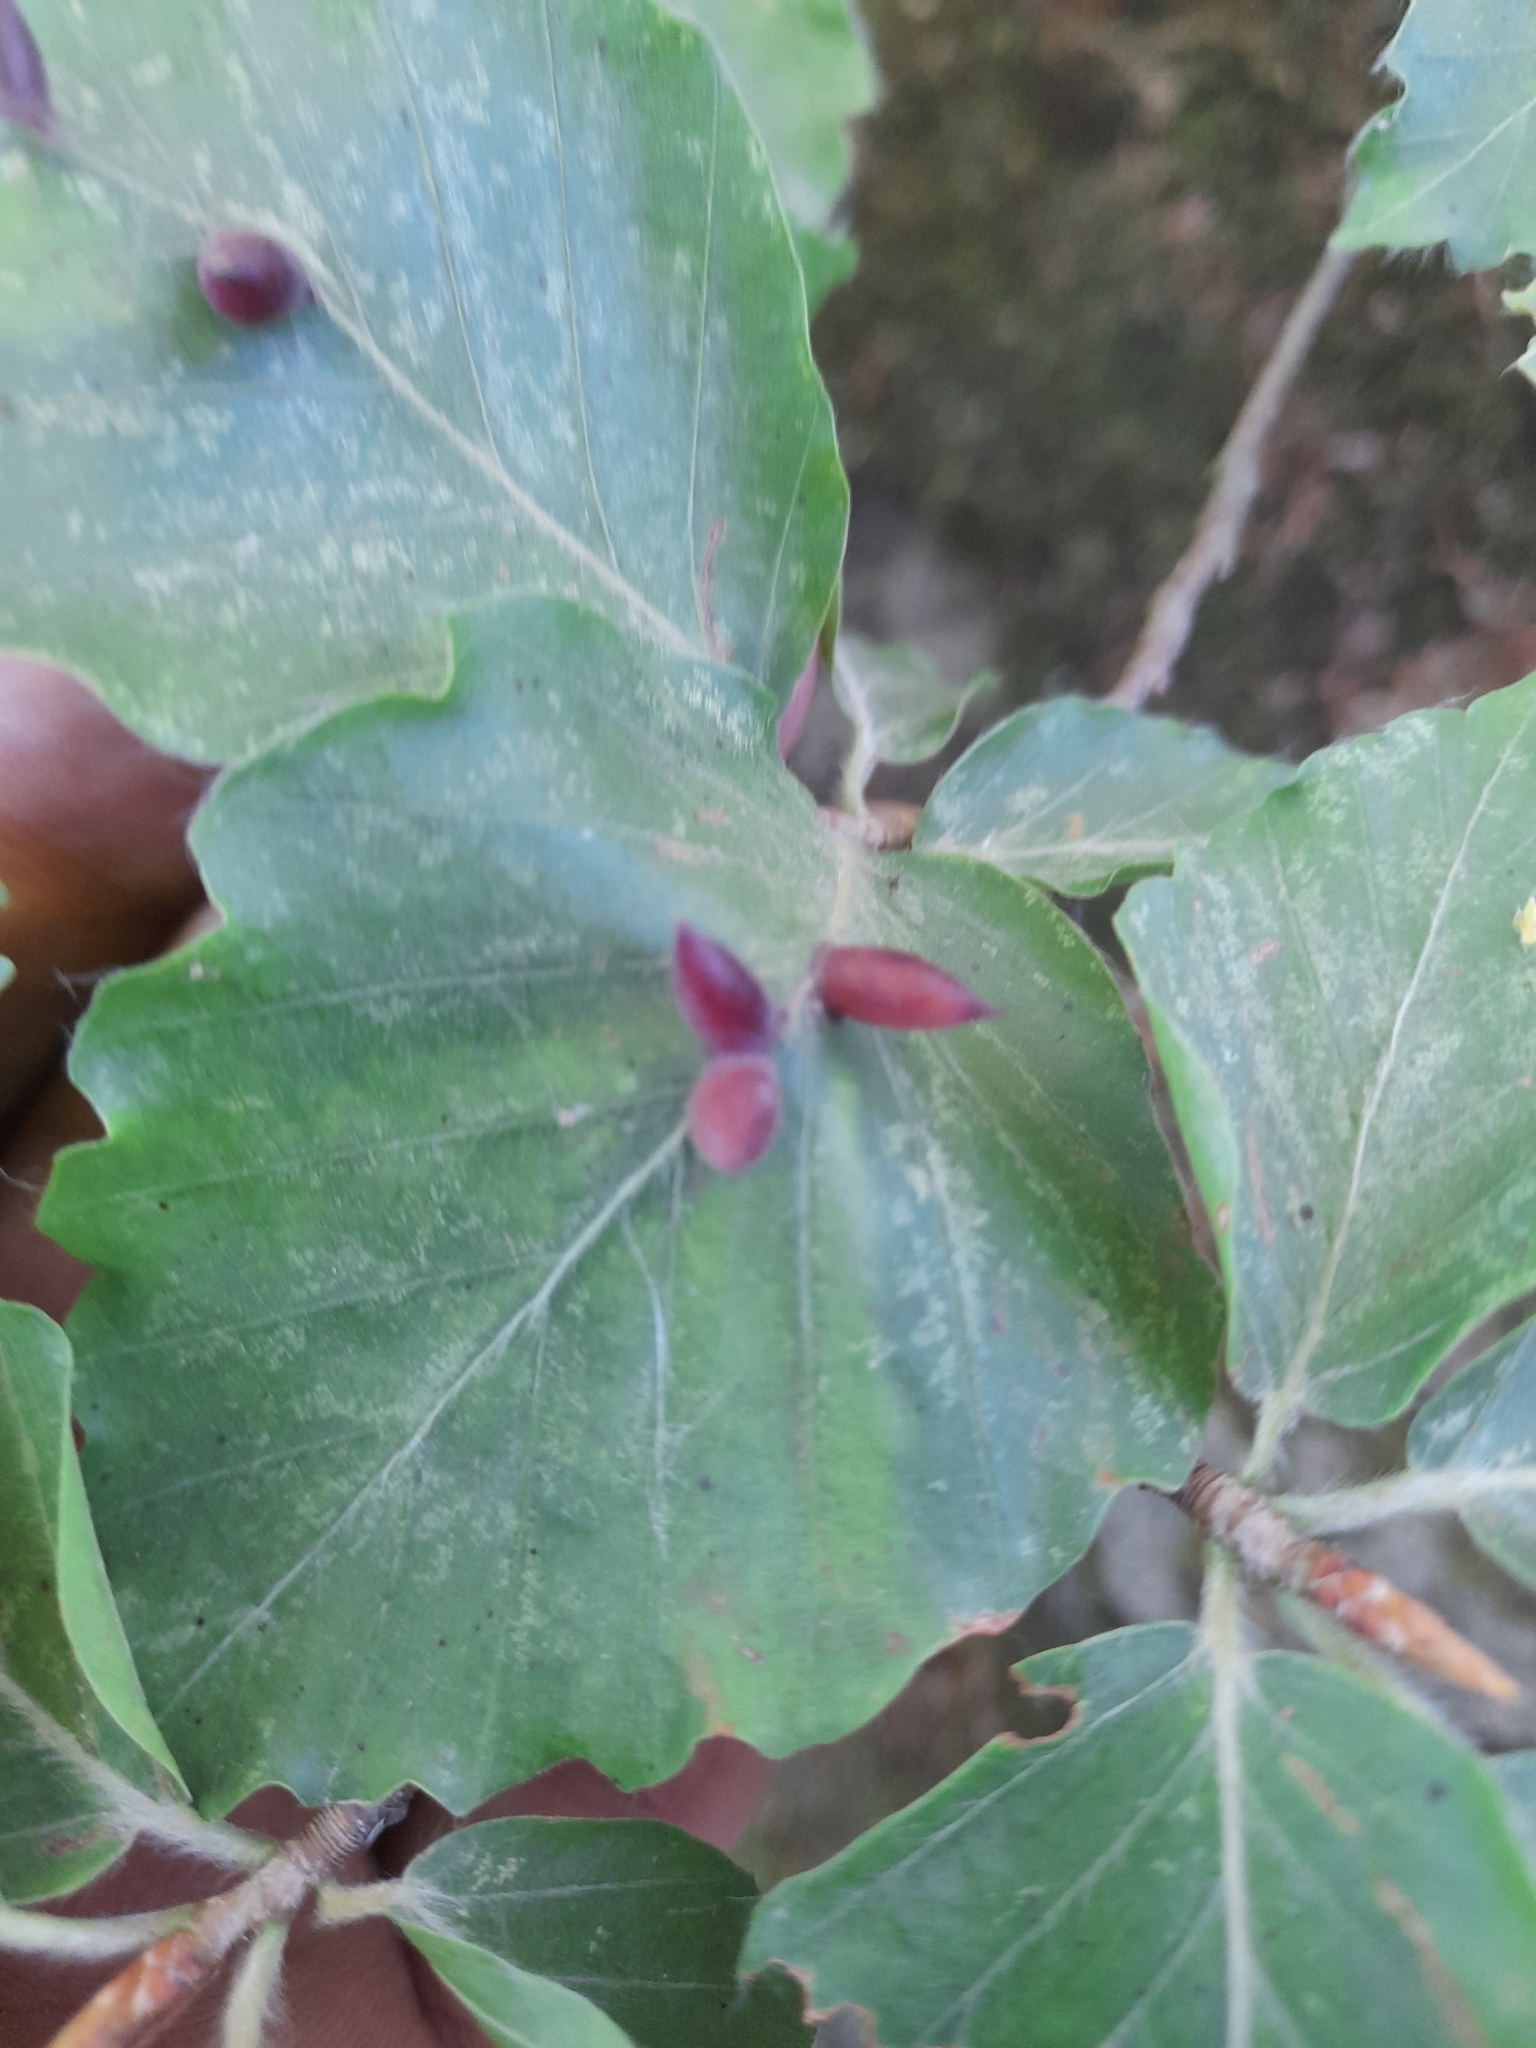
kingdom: Animalia
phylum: Arthropoda
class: Insecta
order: Diptera
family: Cecidomyiidae
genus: Mikiola
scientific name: Mikiola fagi
